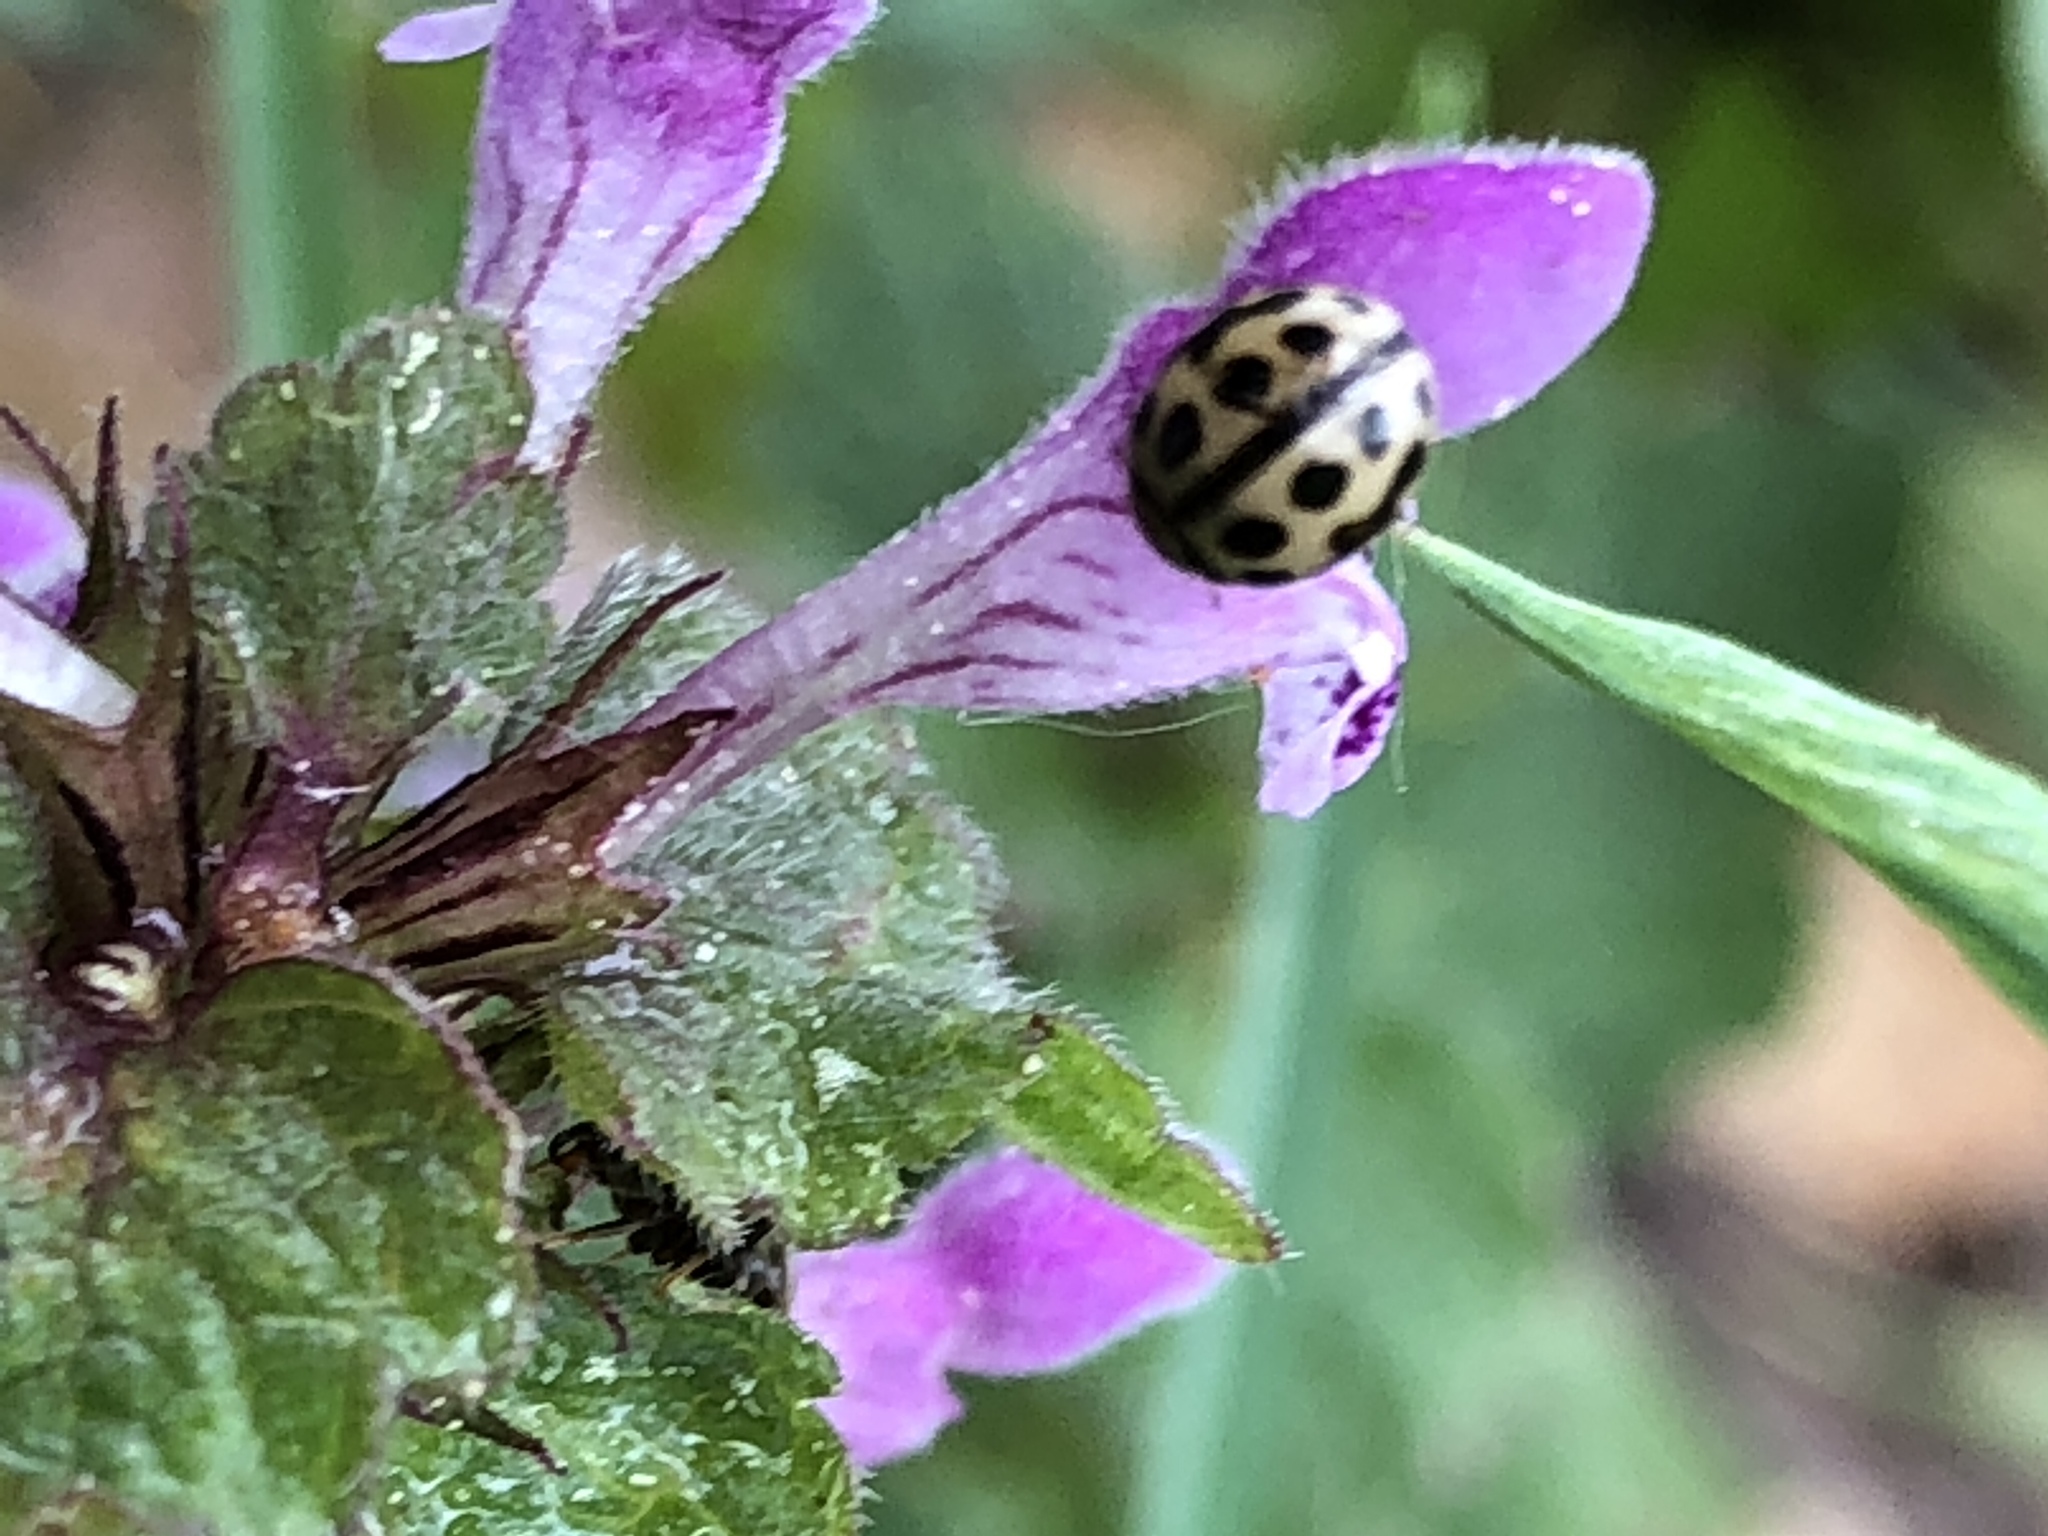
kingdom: Animalia
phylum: Arthropoda
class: Insecta
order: Coleoptera
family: Coccinellidae
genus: Tytthaspis
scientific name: Tytthaspis sedecimpunctata
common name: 16-spot ladybird
